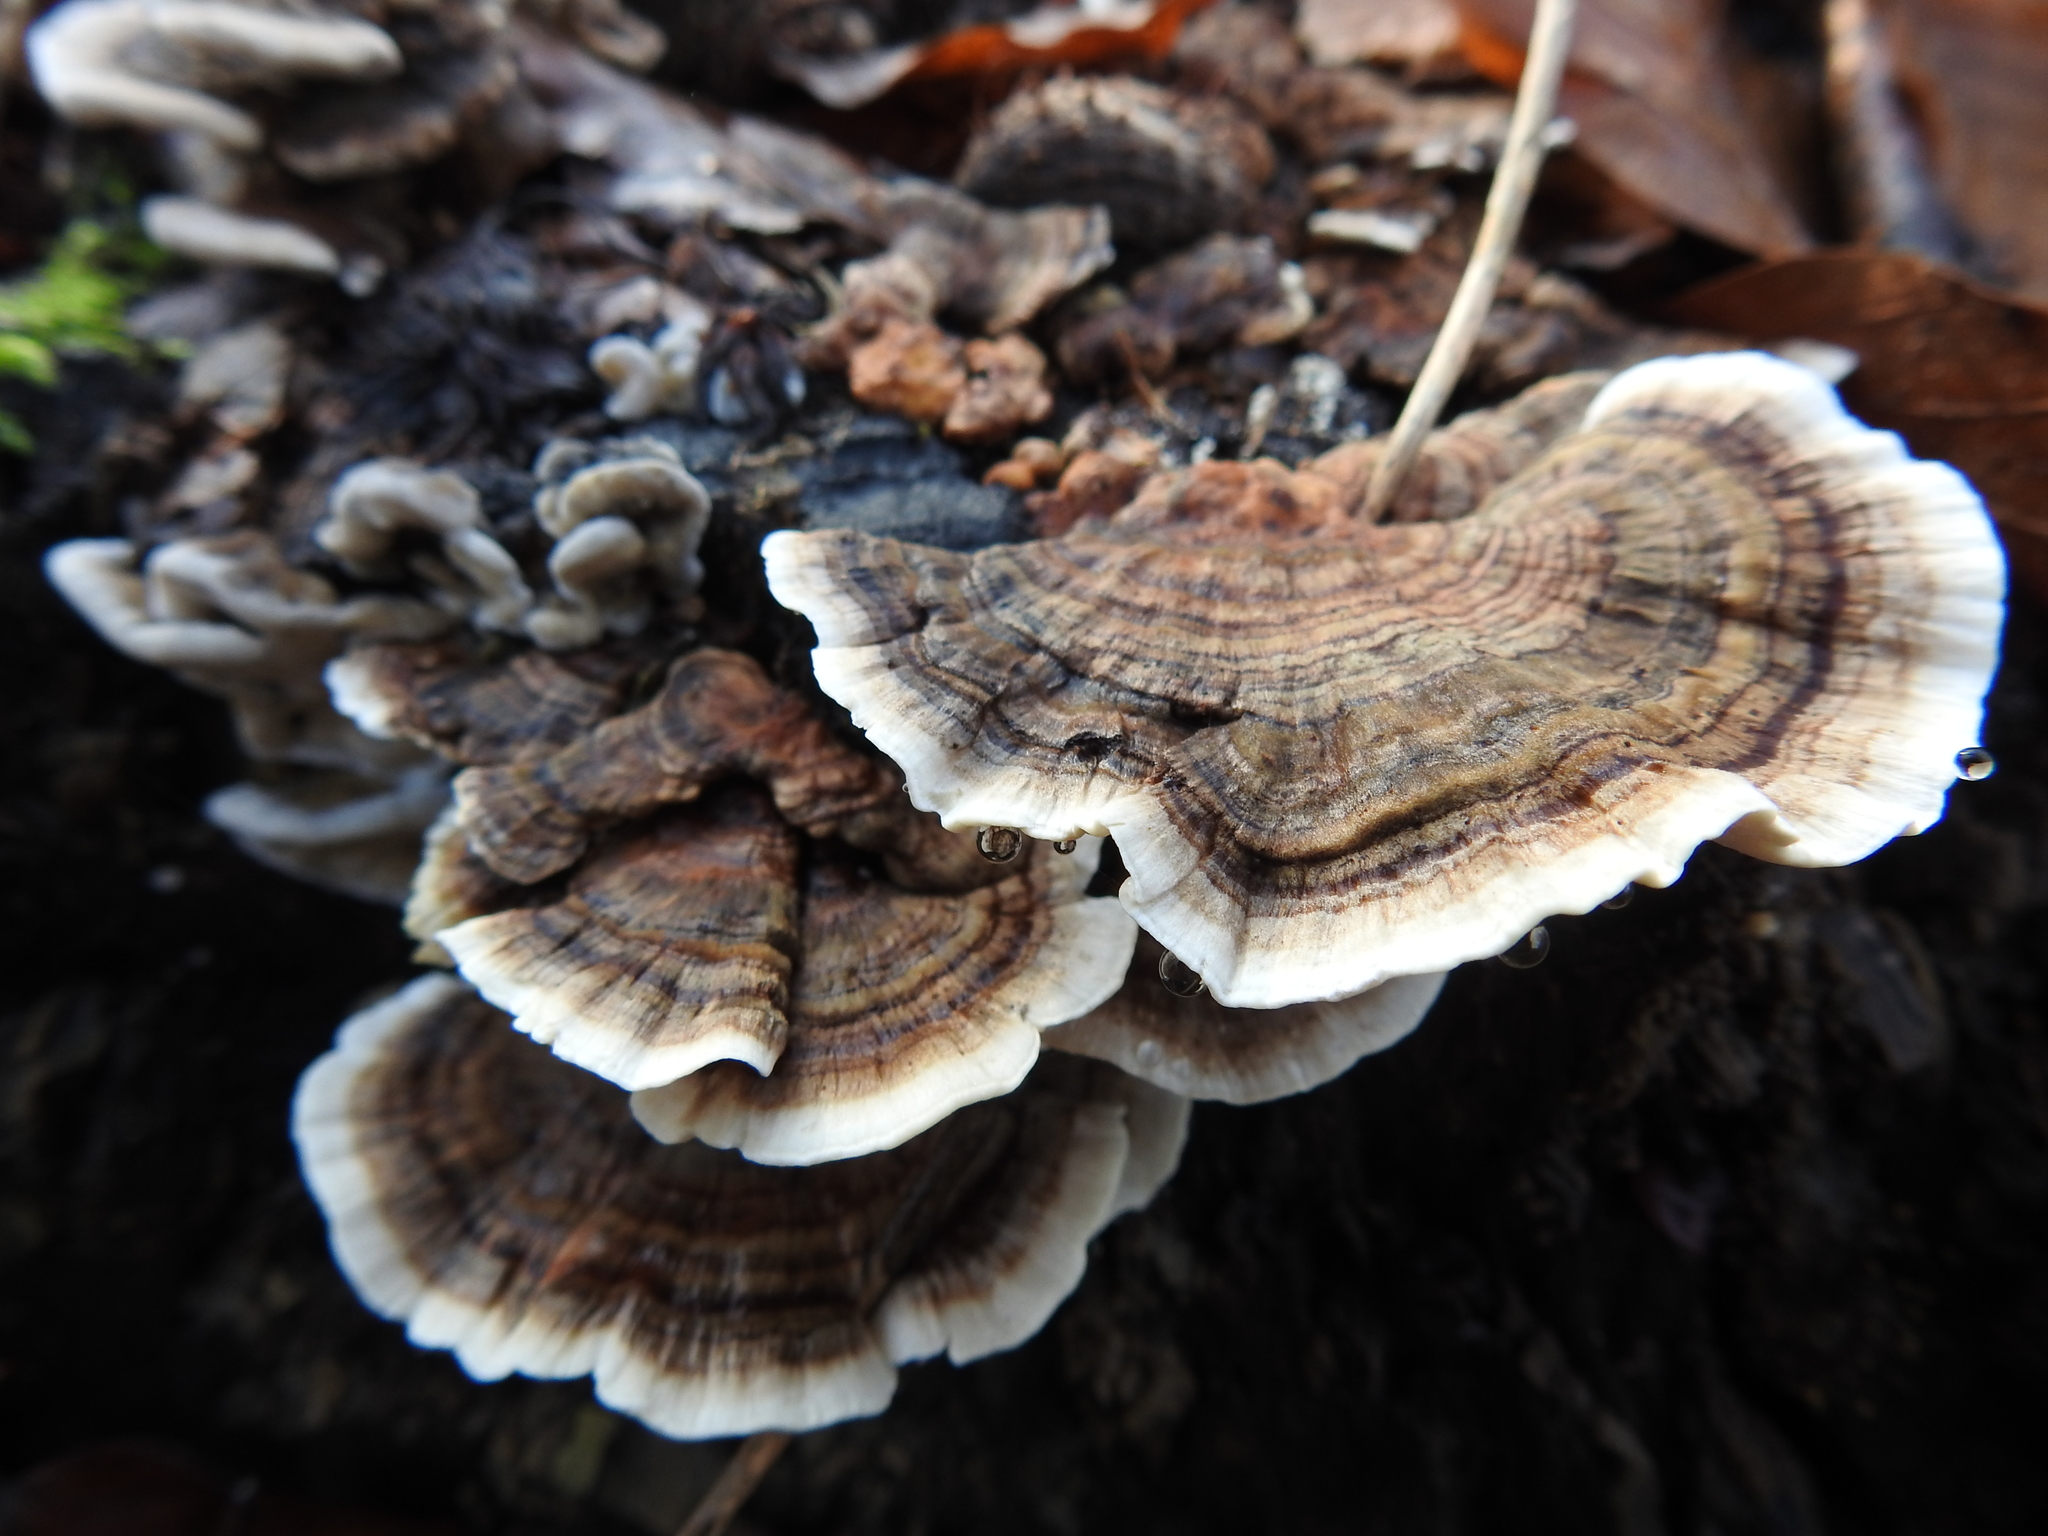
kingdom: Fungi
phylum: Basidiomycota
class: Agaricomycetes
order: Polyporales
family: Polyporaceae
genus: Trametes
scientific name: Trametes versicolor
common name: Turkeytail
